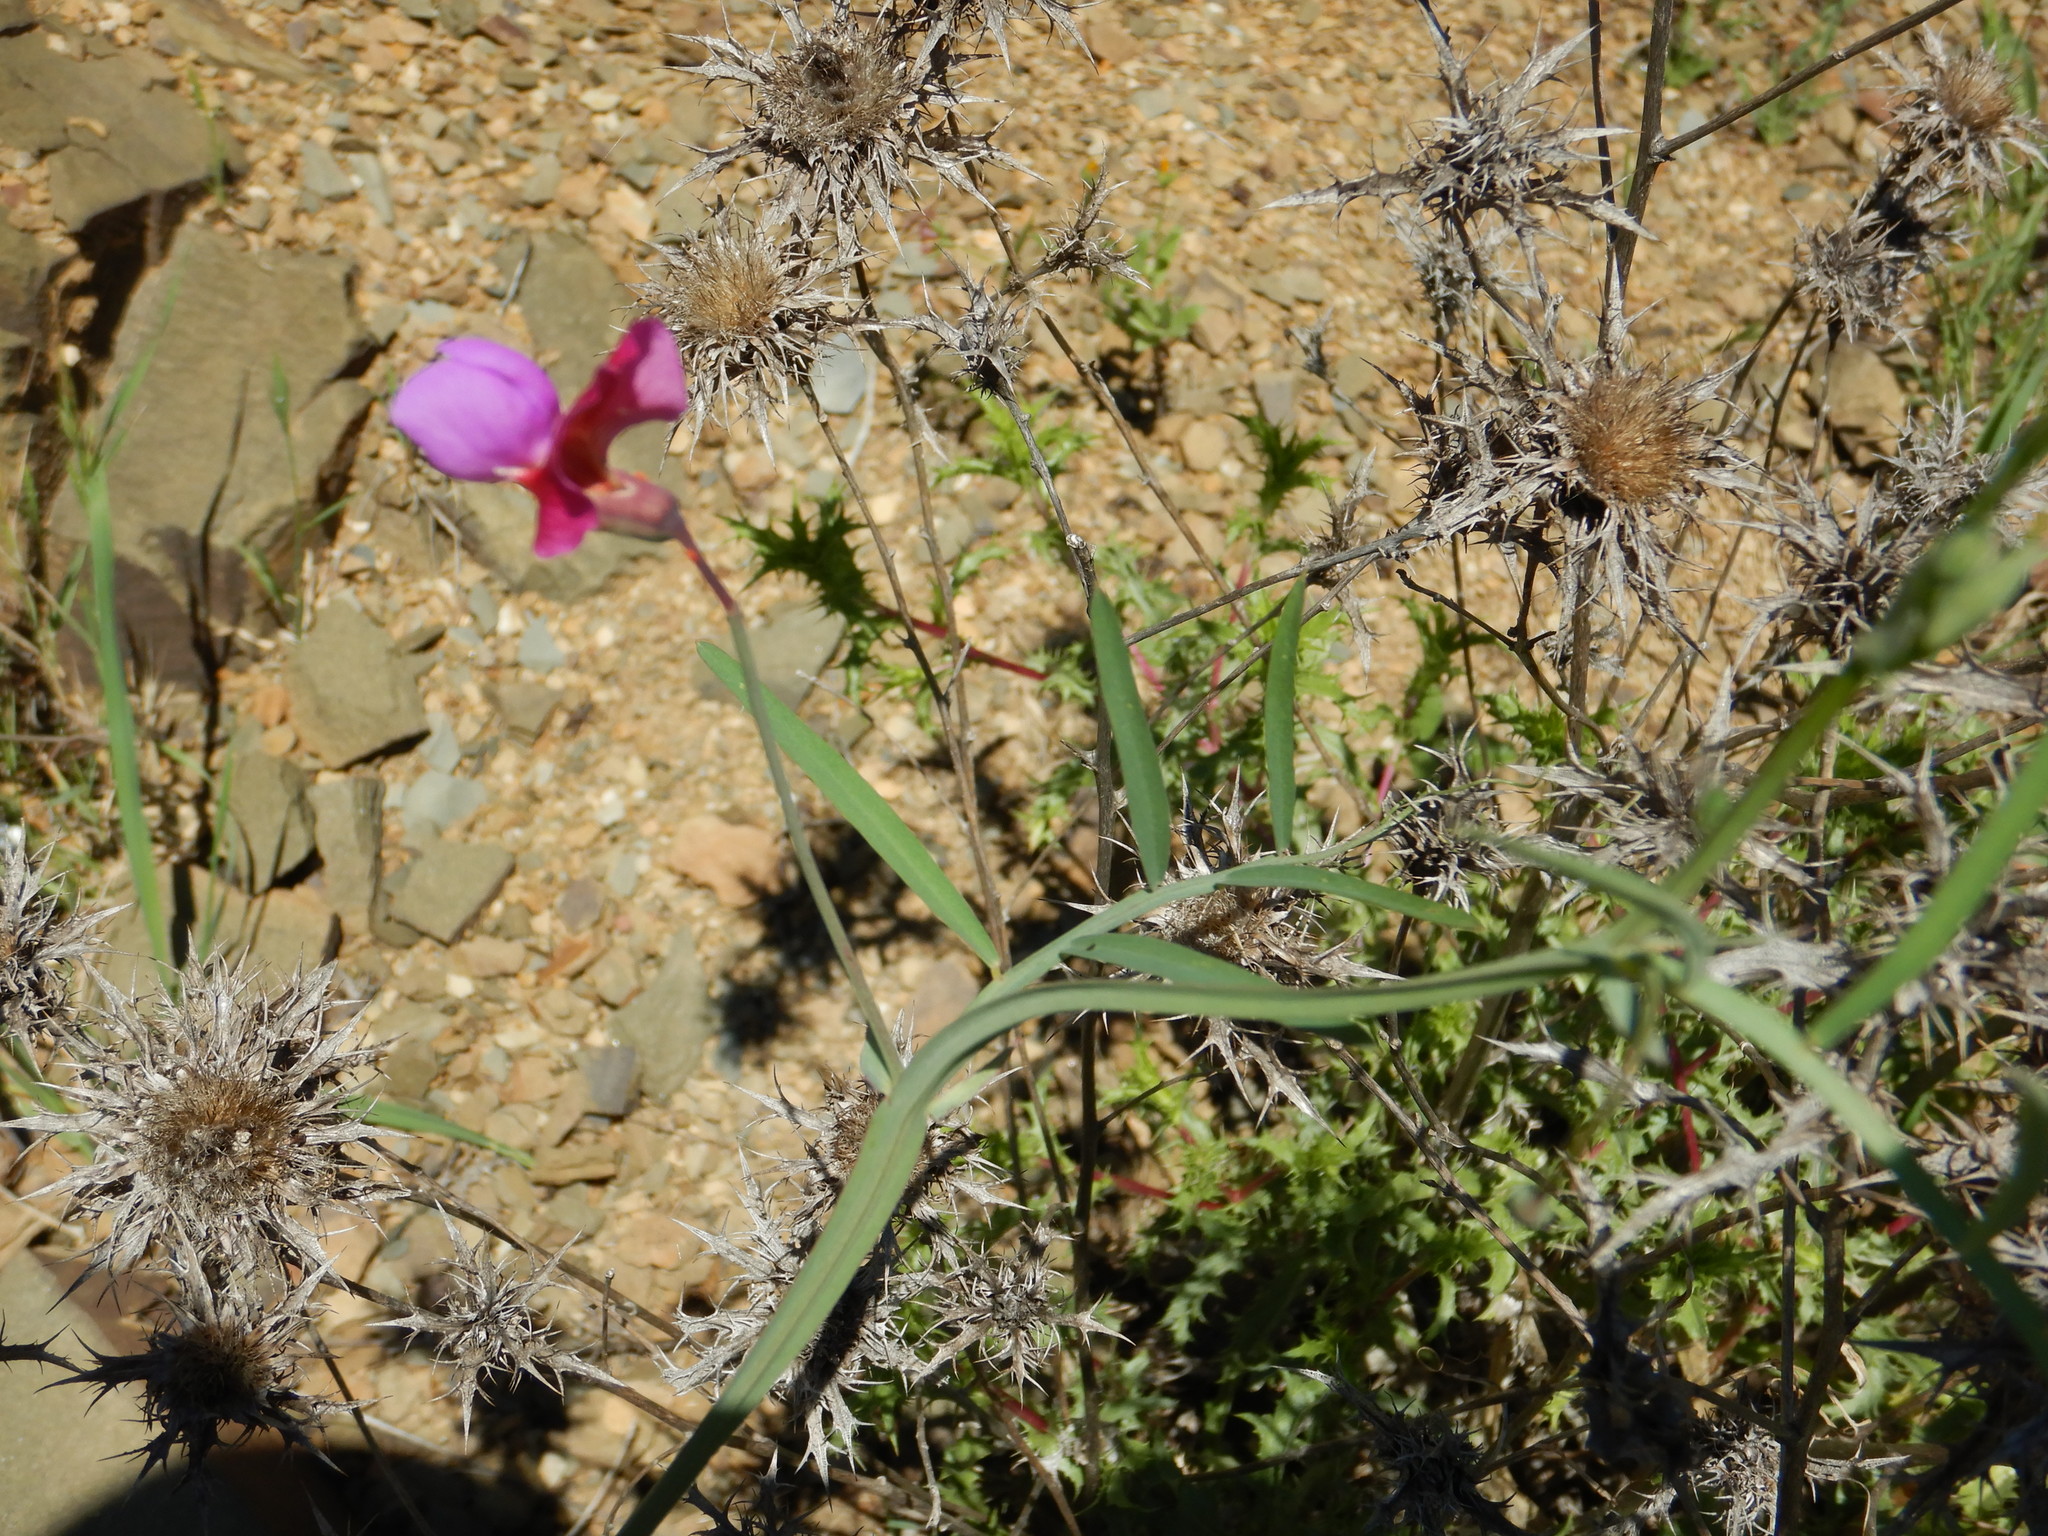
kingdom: Plantae
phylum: Tracheophyta
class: Magnoliopsida
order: Fabales
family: Fabaceae
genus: Lathyrus
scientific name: Lathyrus clymenum
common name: Spanish vetchling
